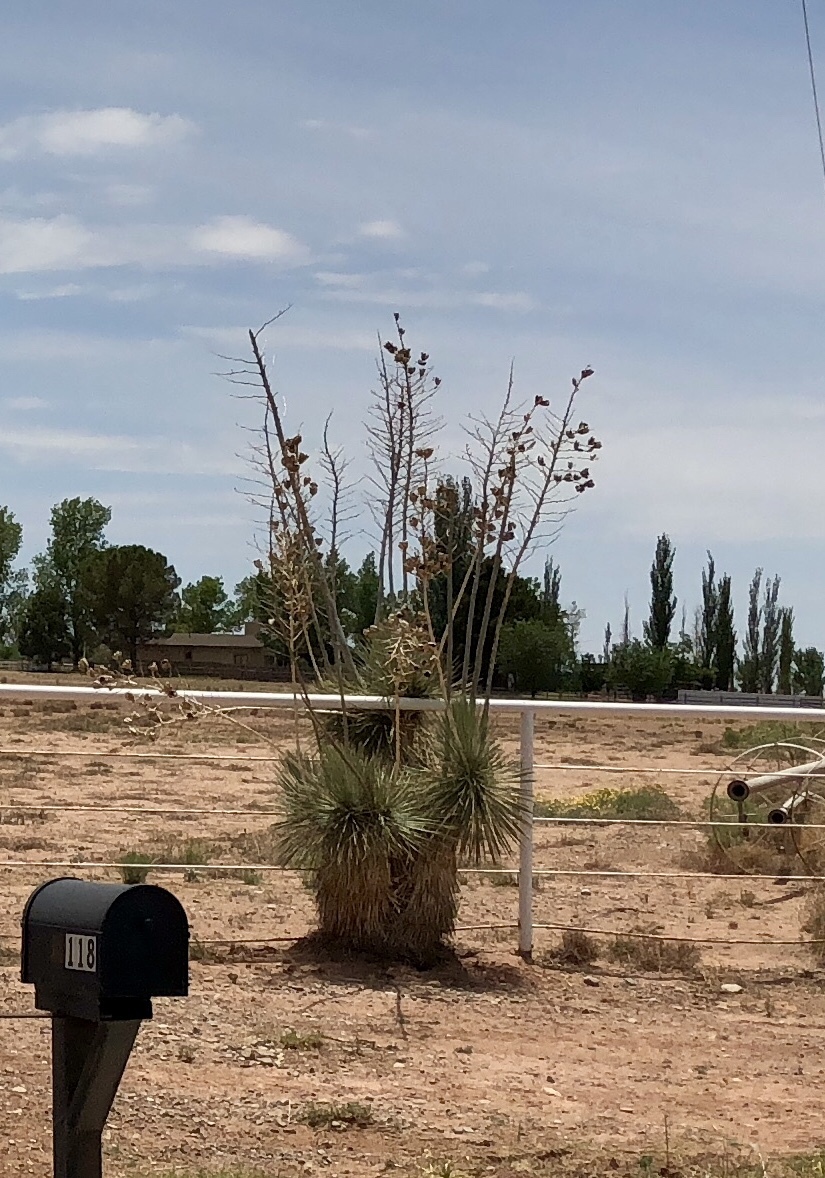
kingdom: Plantae
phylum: Tracheophyta
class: Liliopsida
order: Asparagales
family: Asparagaceae
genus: Yucca
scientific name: Yucca elata
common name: Palmella
